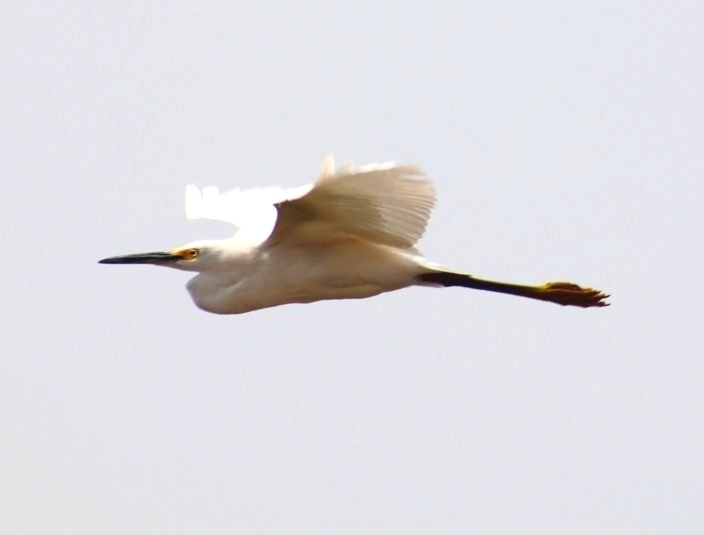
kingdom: Animalia
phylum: Chordata
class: Aves
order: Pelecaniformes
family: Ardeidae
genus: Egretta
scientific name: Egretta thula
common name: Snowy egret
